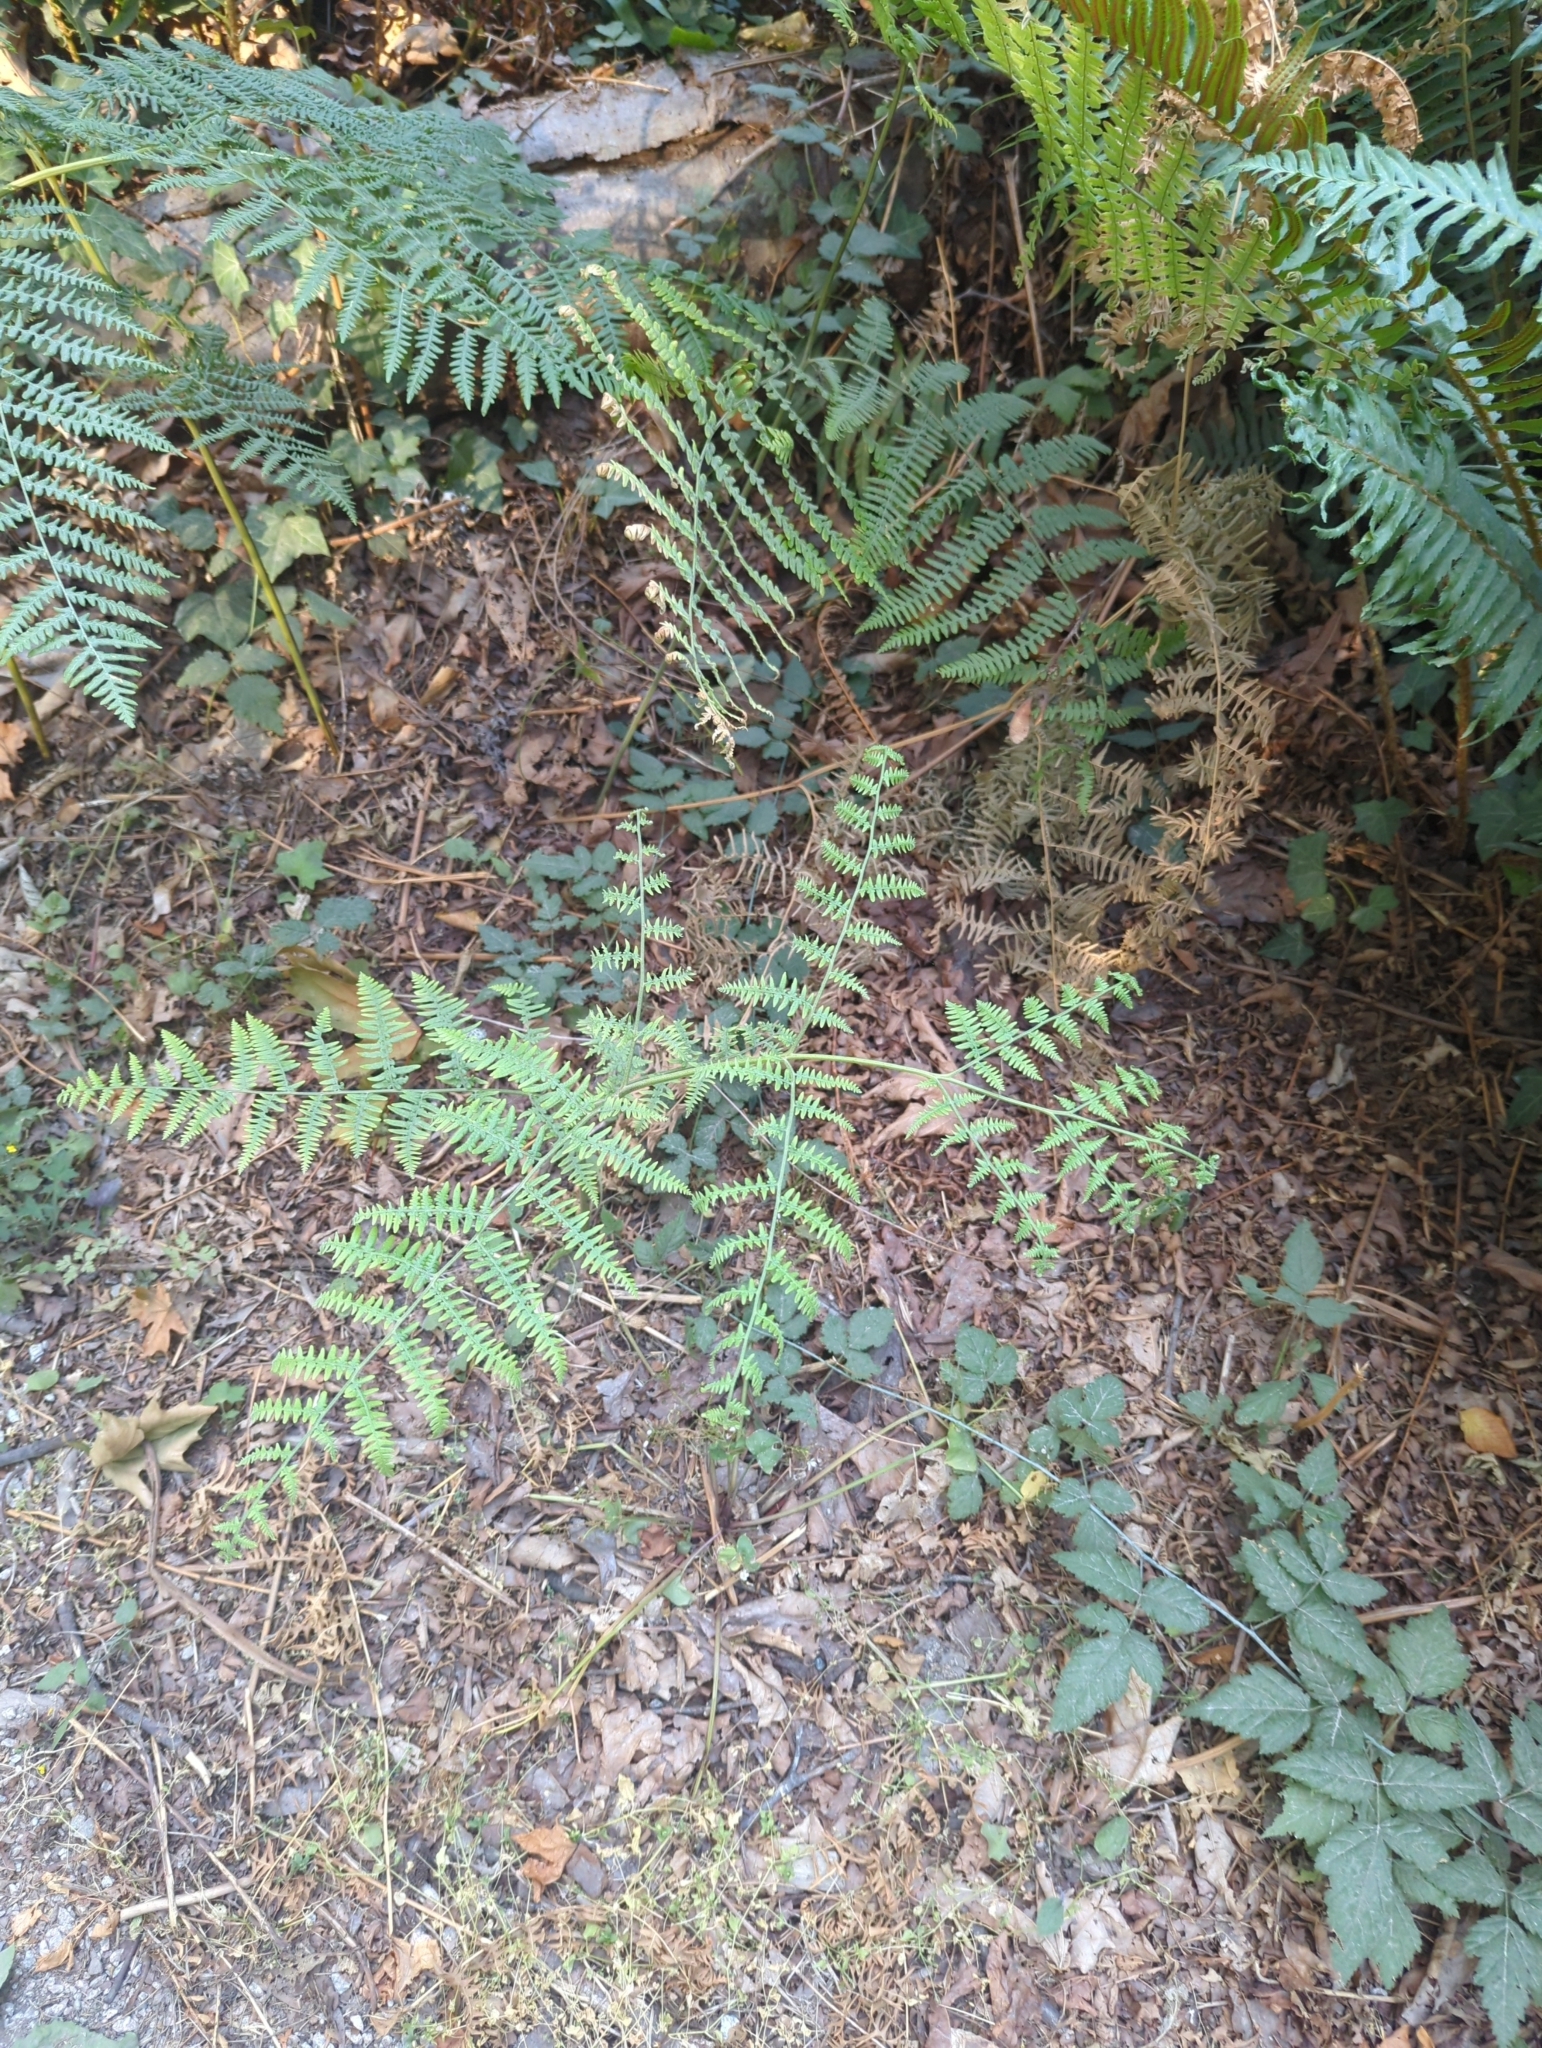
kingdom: Plantae
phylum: Tracheophyta
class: Polypodiopsida
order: Polypodiales
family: Dennstaedtiaceae
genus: Pteridium
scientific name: Pteridium aquilinum
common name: Bracken
